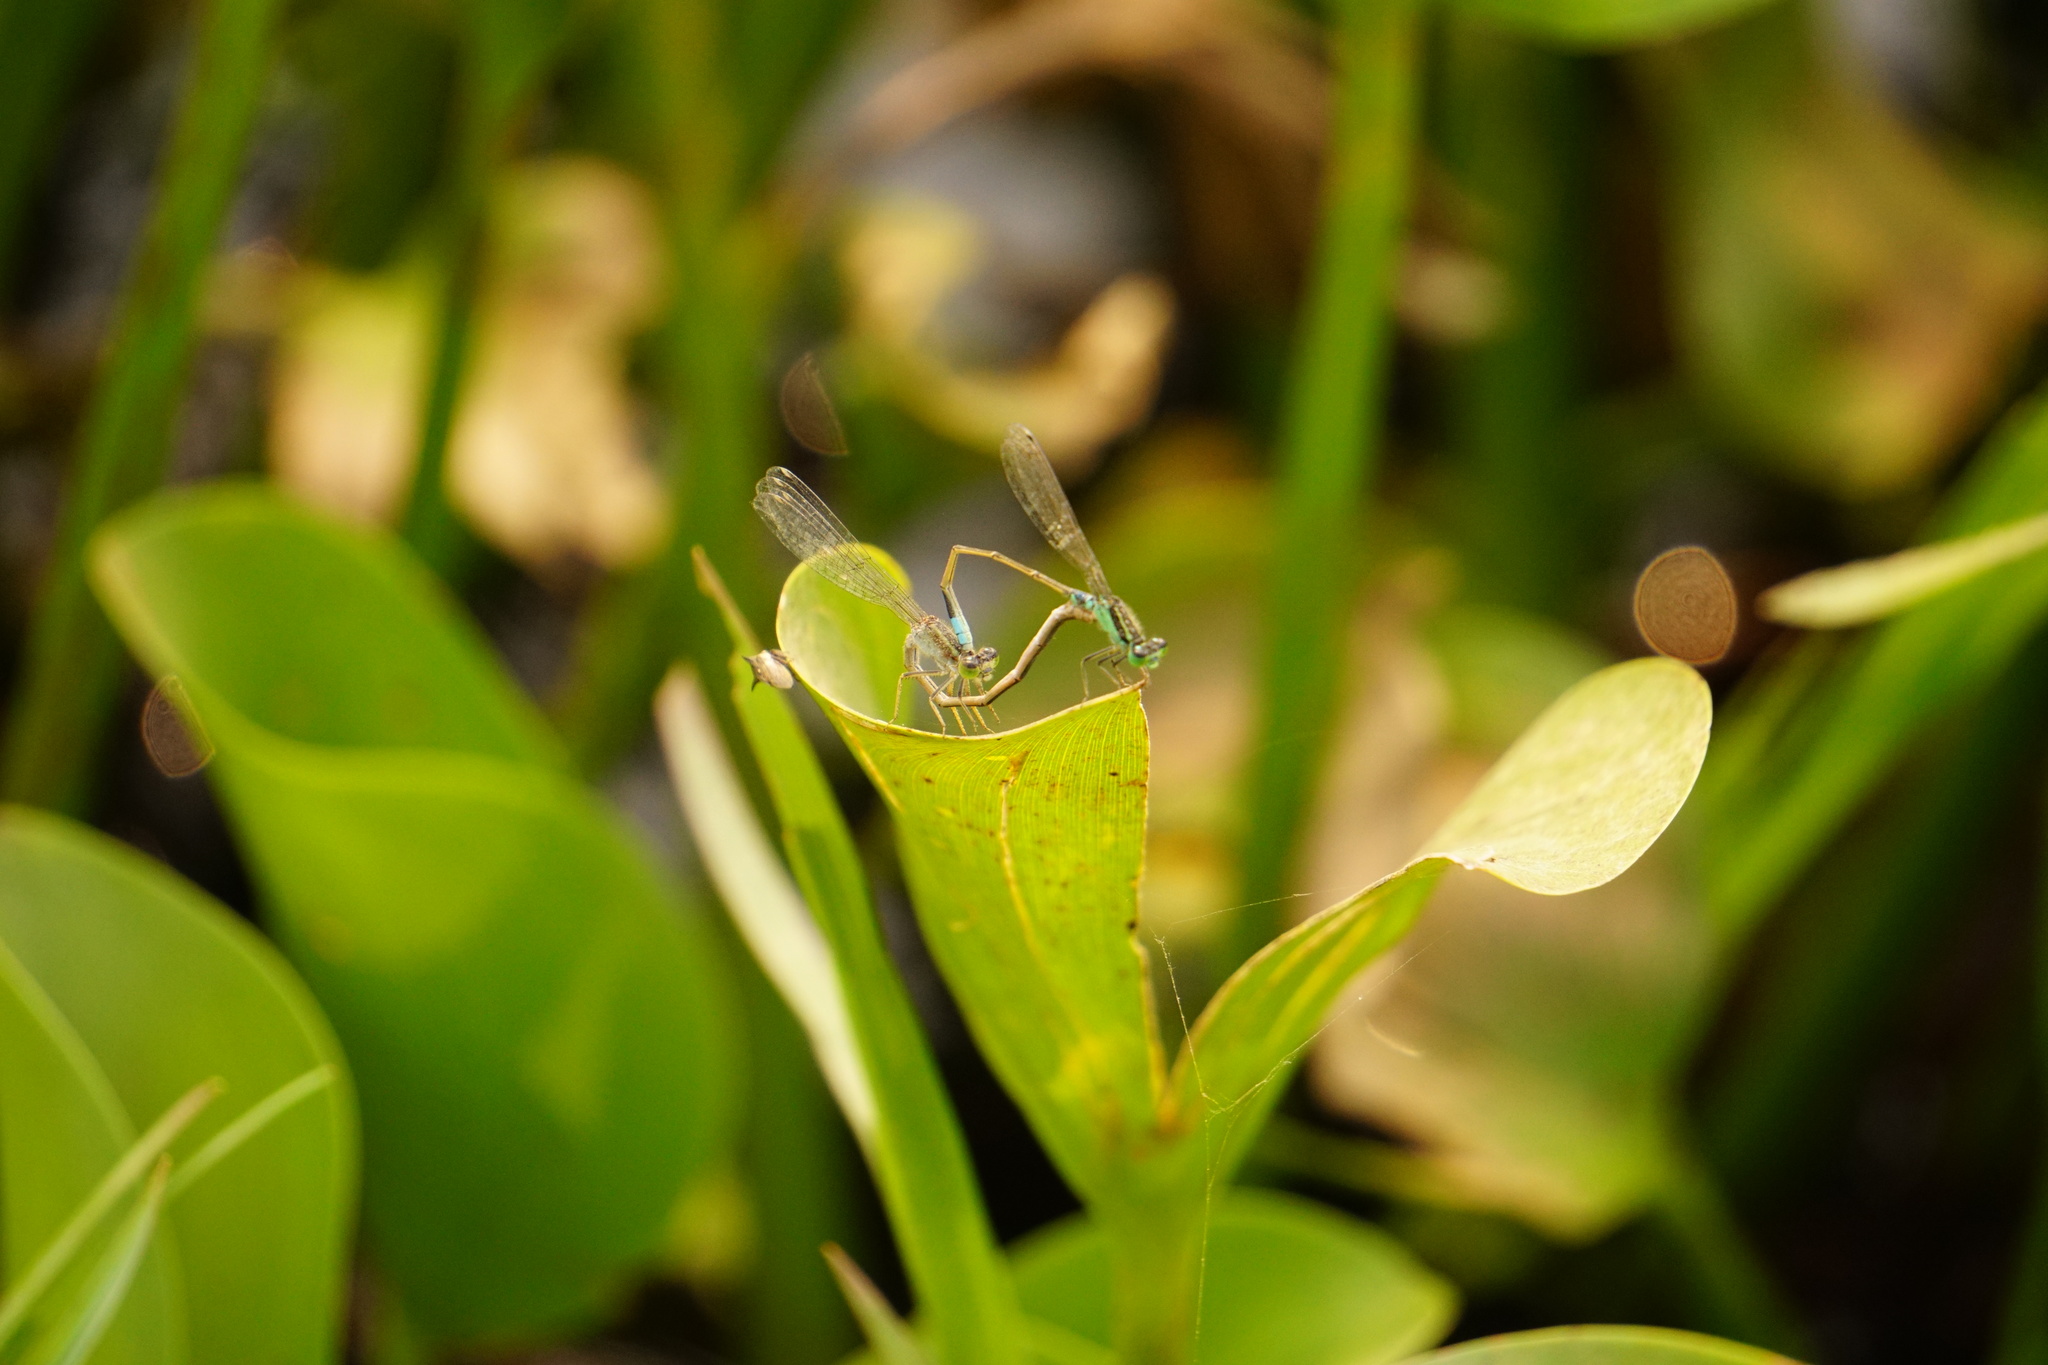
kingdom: Animalia
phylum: Arthropoda
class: Insecta
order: Odonata
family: Coenagrionidae
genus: Ischnura
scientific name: Ischnura senegalensis
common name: Tropical bluetail
